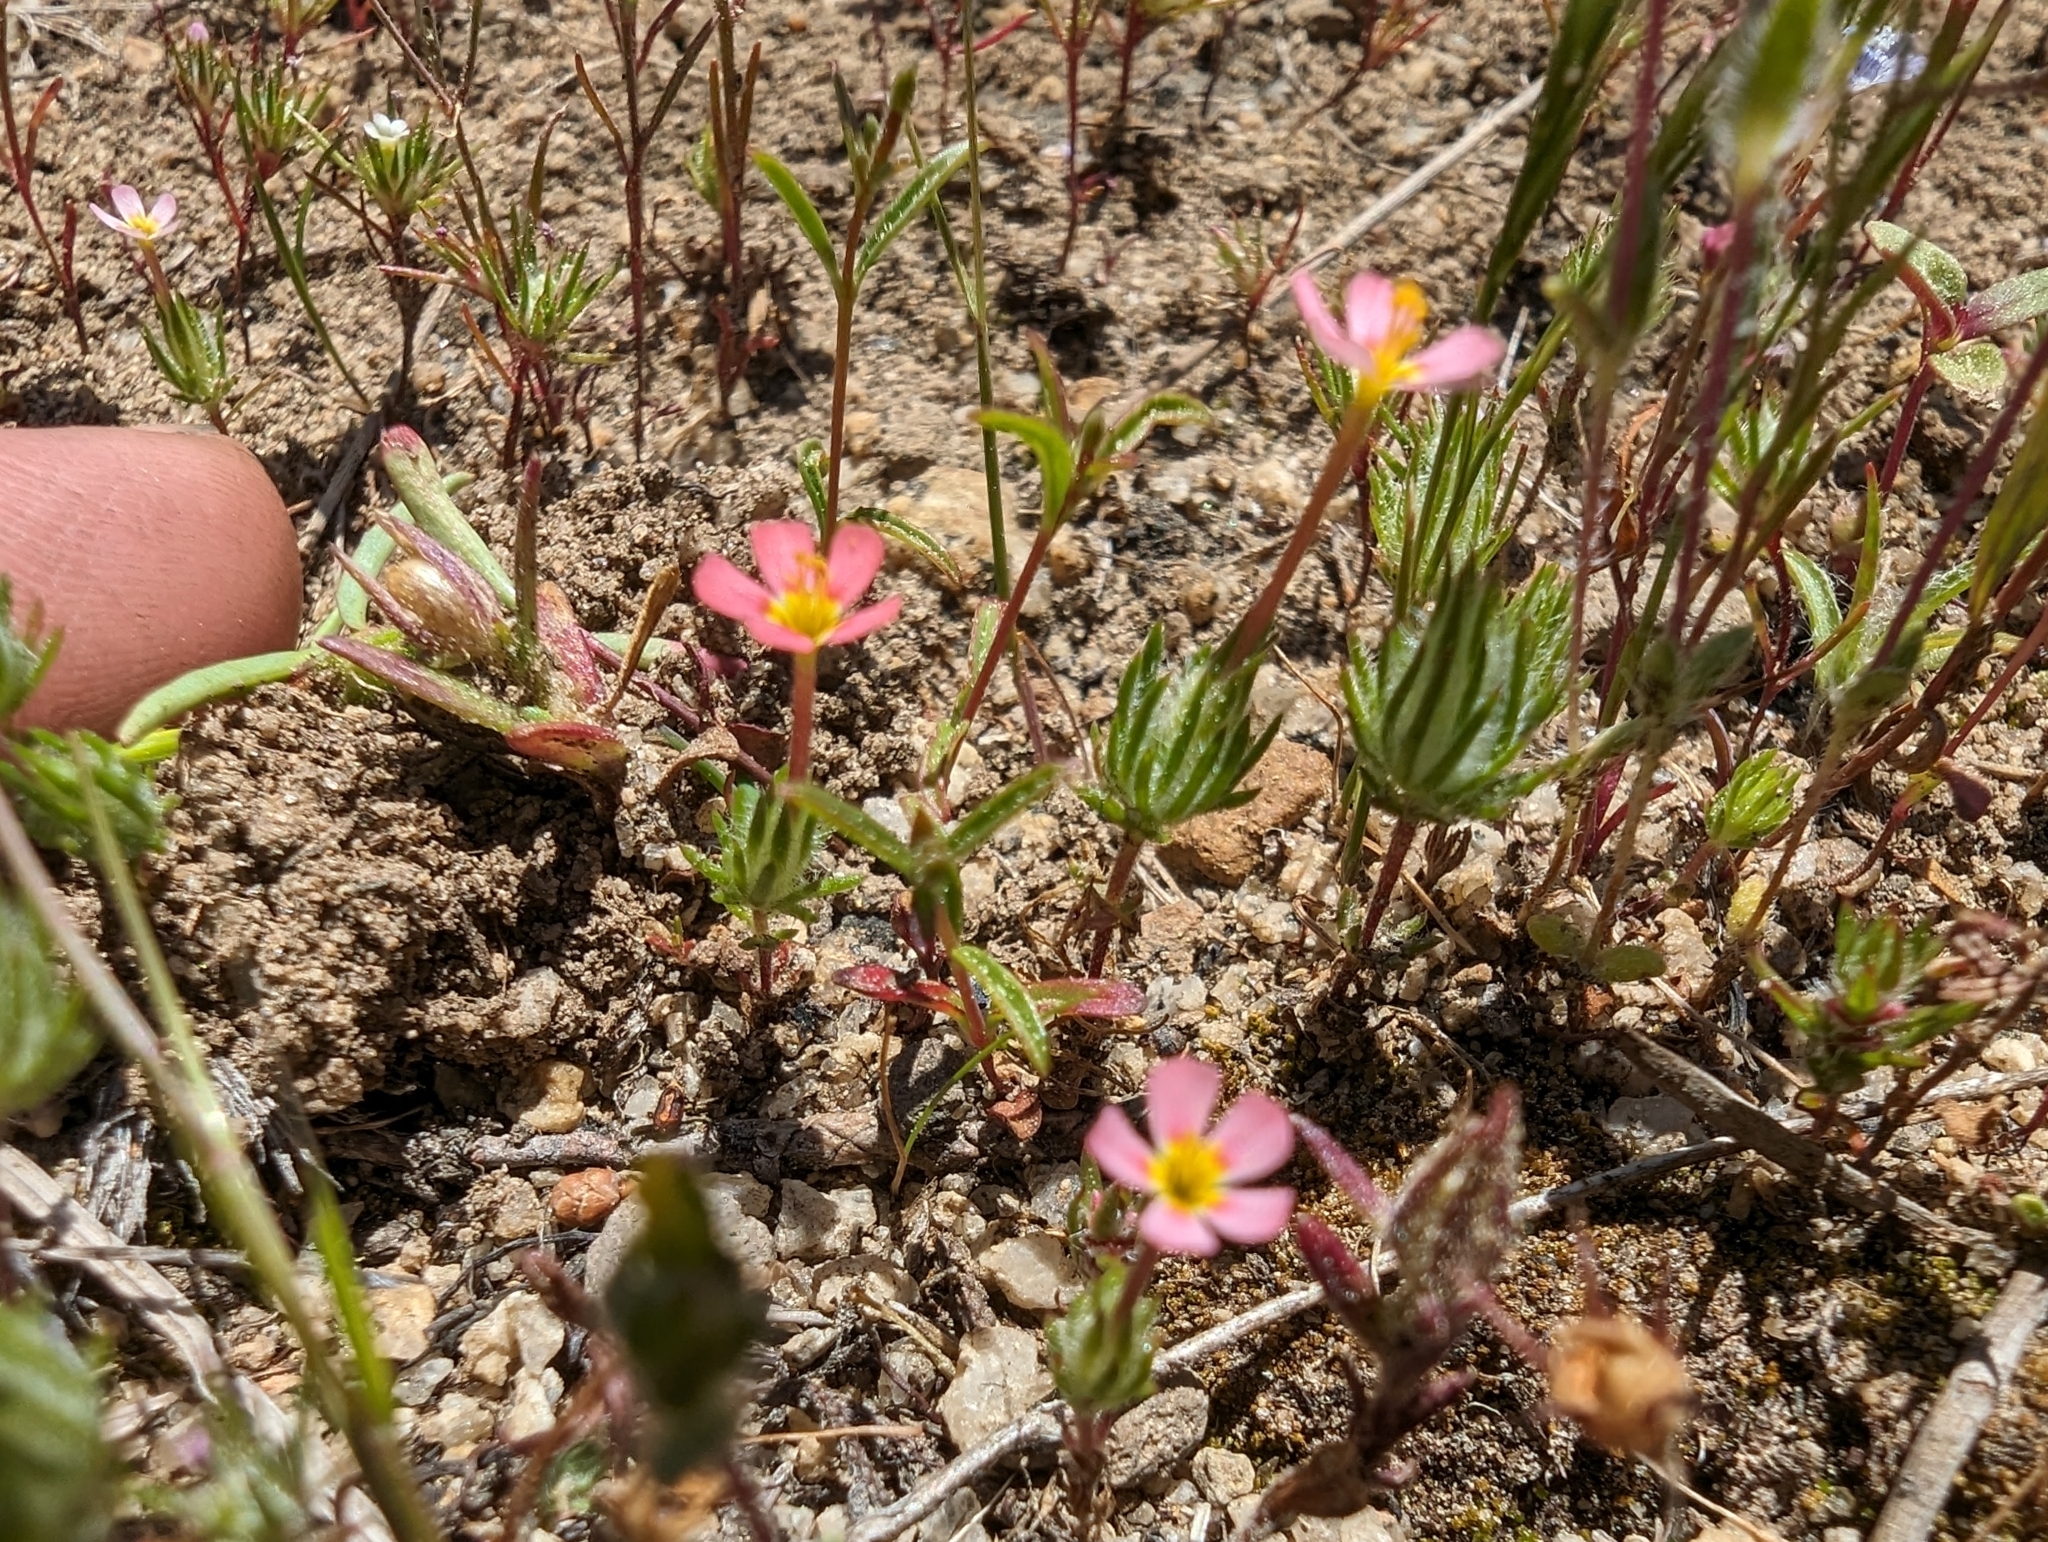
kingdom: Plantae
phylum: Tracheophyta
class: Magnoliopsida
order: Ericales
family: Polemoniaceae
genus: Leptosiphon
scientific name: Leptosiphon ciliatus
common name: Whiskerbrush
